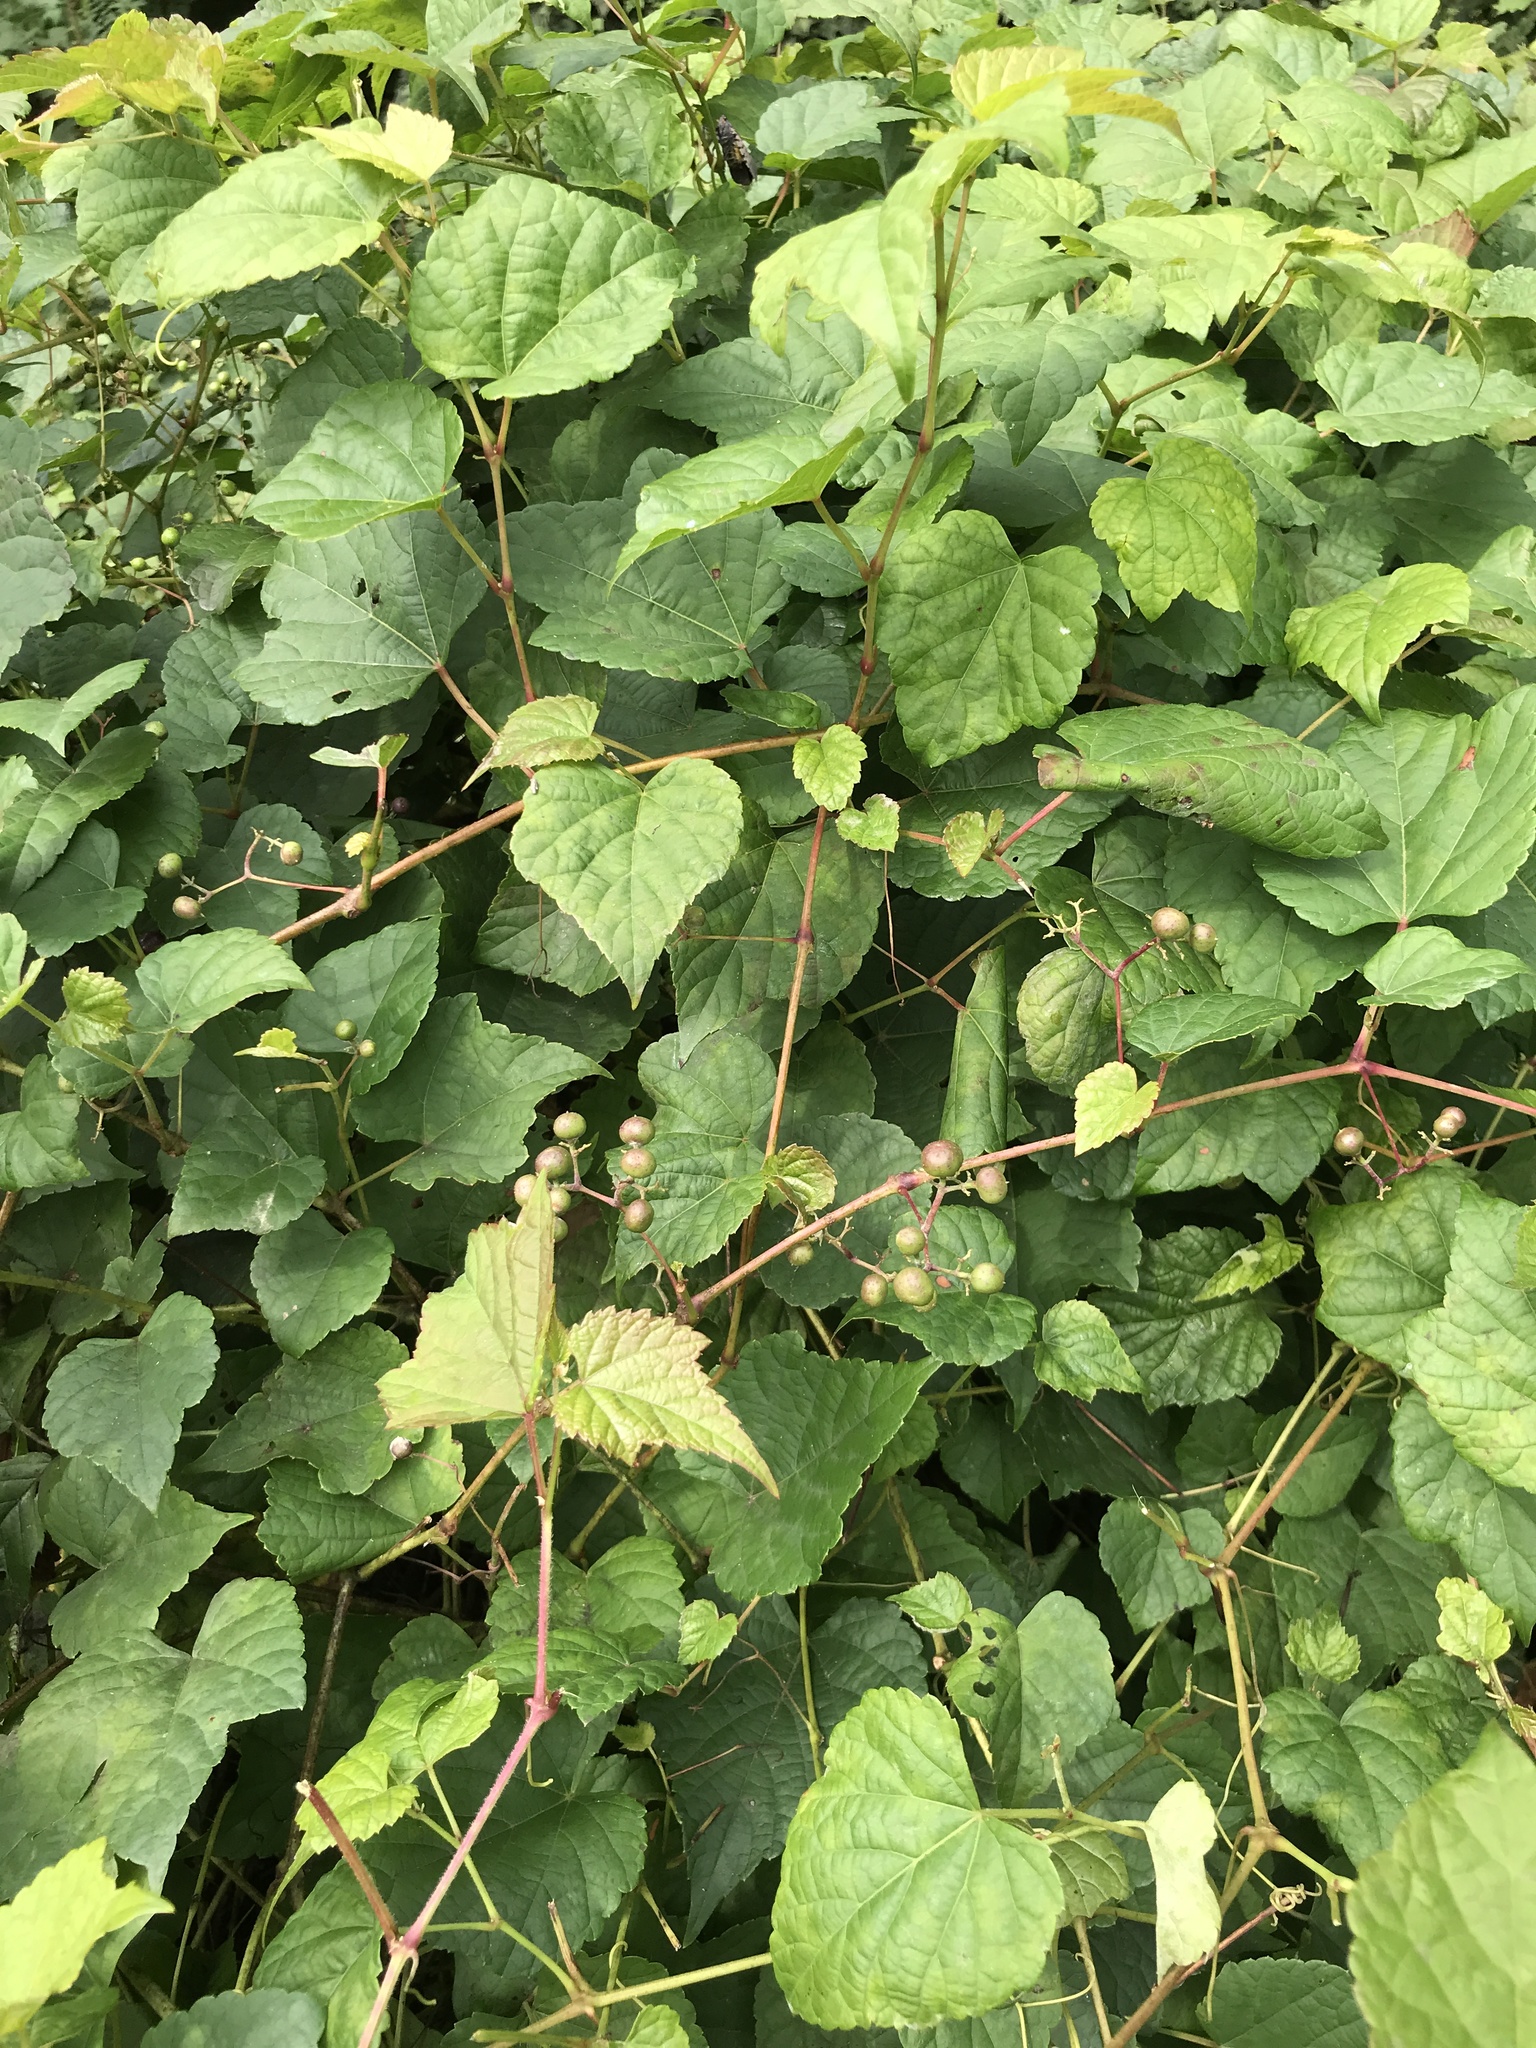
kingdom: Plantae
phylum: Tracheophyta
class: Magnoliopsida
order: Vitales
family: Vitaceae
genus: Ampelopsis
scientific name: Ampelopsis glandulosa
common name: Amur peppervine
